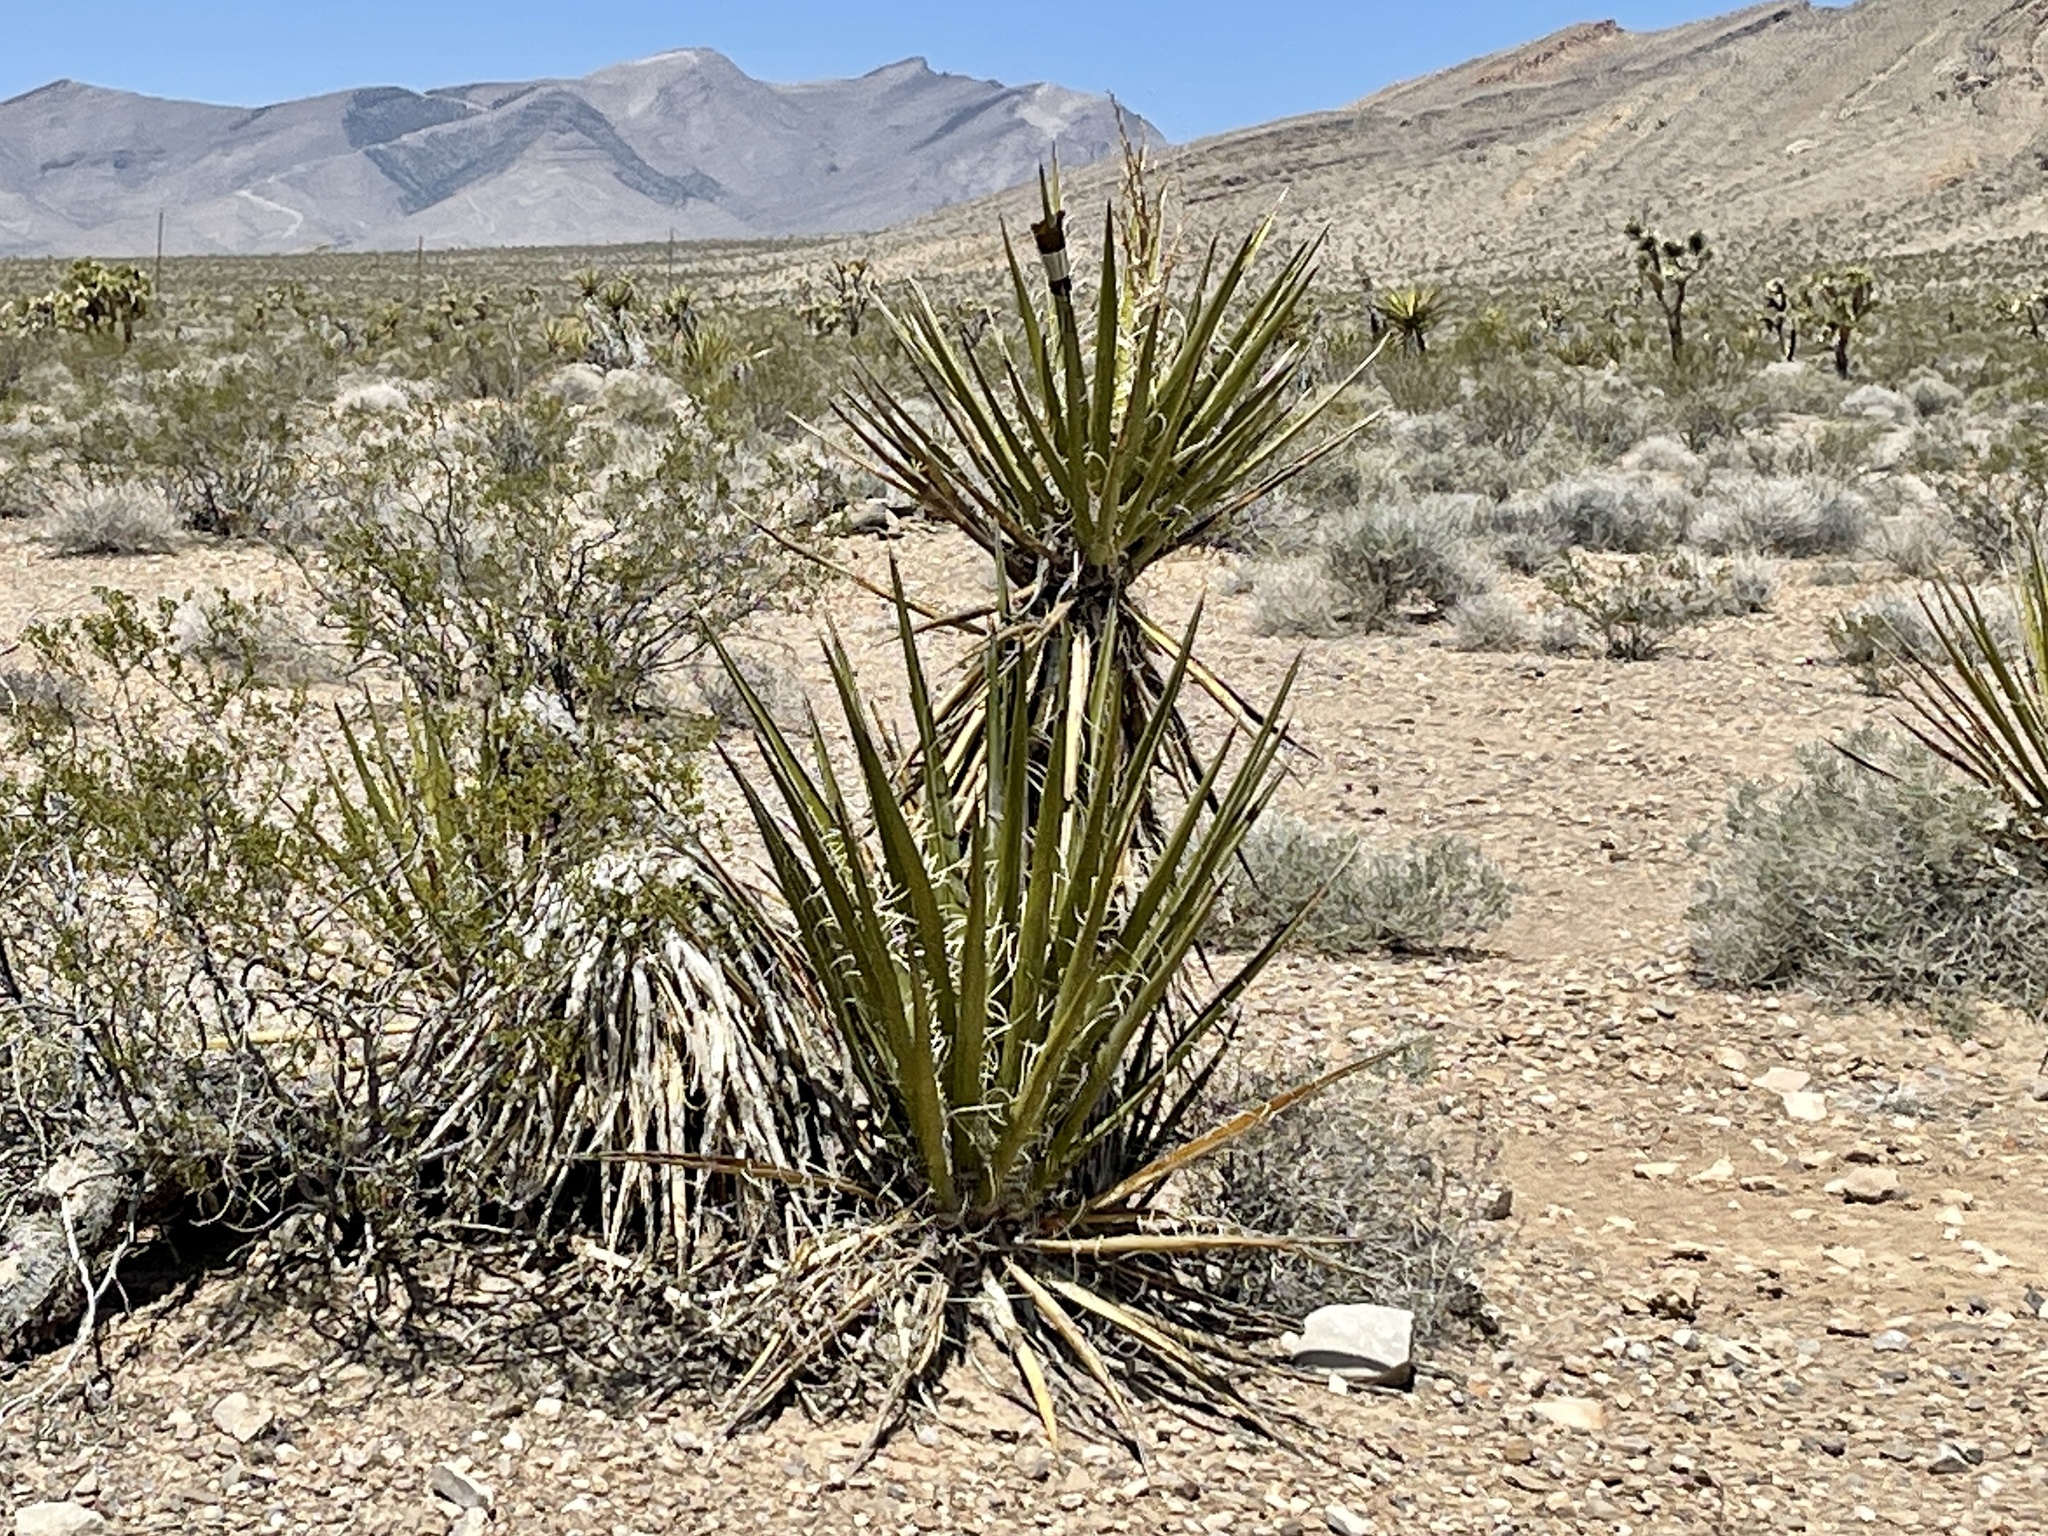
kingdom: Plantae
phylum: Tracheophyta
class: Liliopsida
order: Asparagales
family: Asparagaceae
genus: Yucca
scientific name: Yucca schidigera
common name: Mojave yucca
